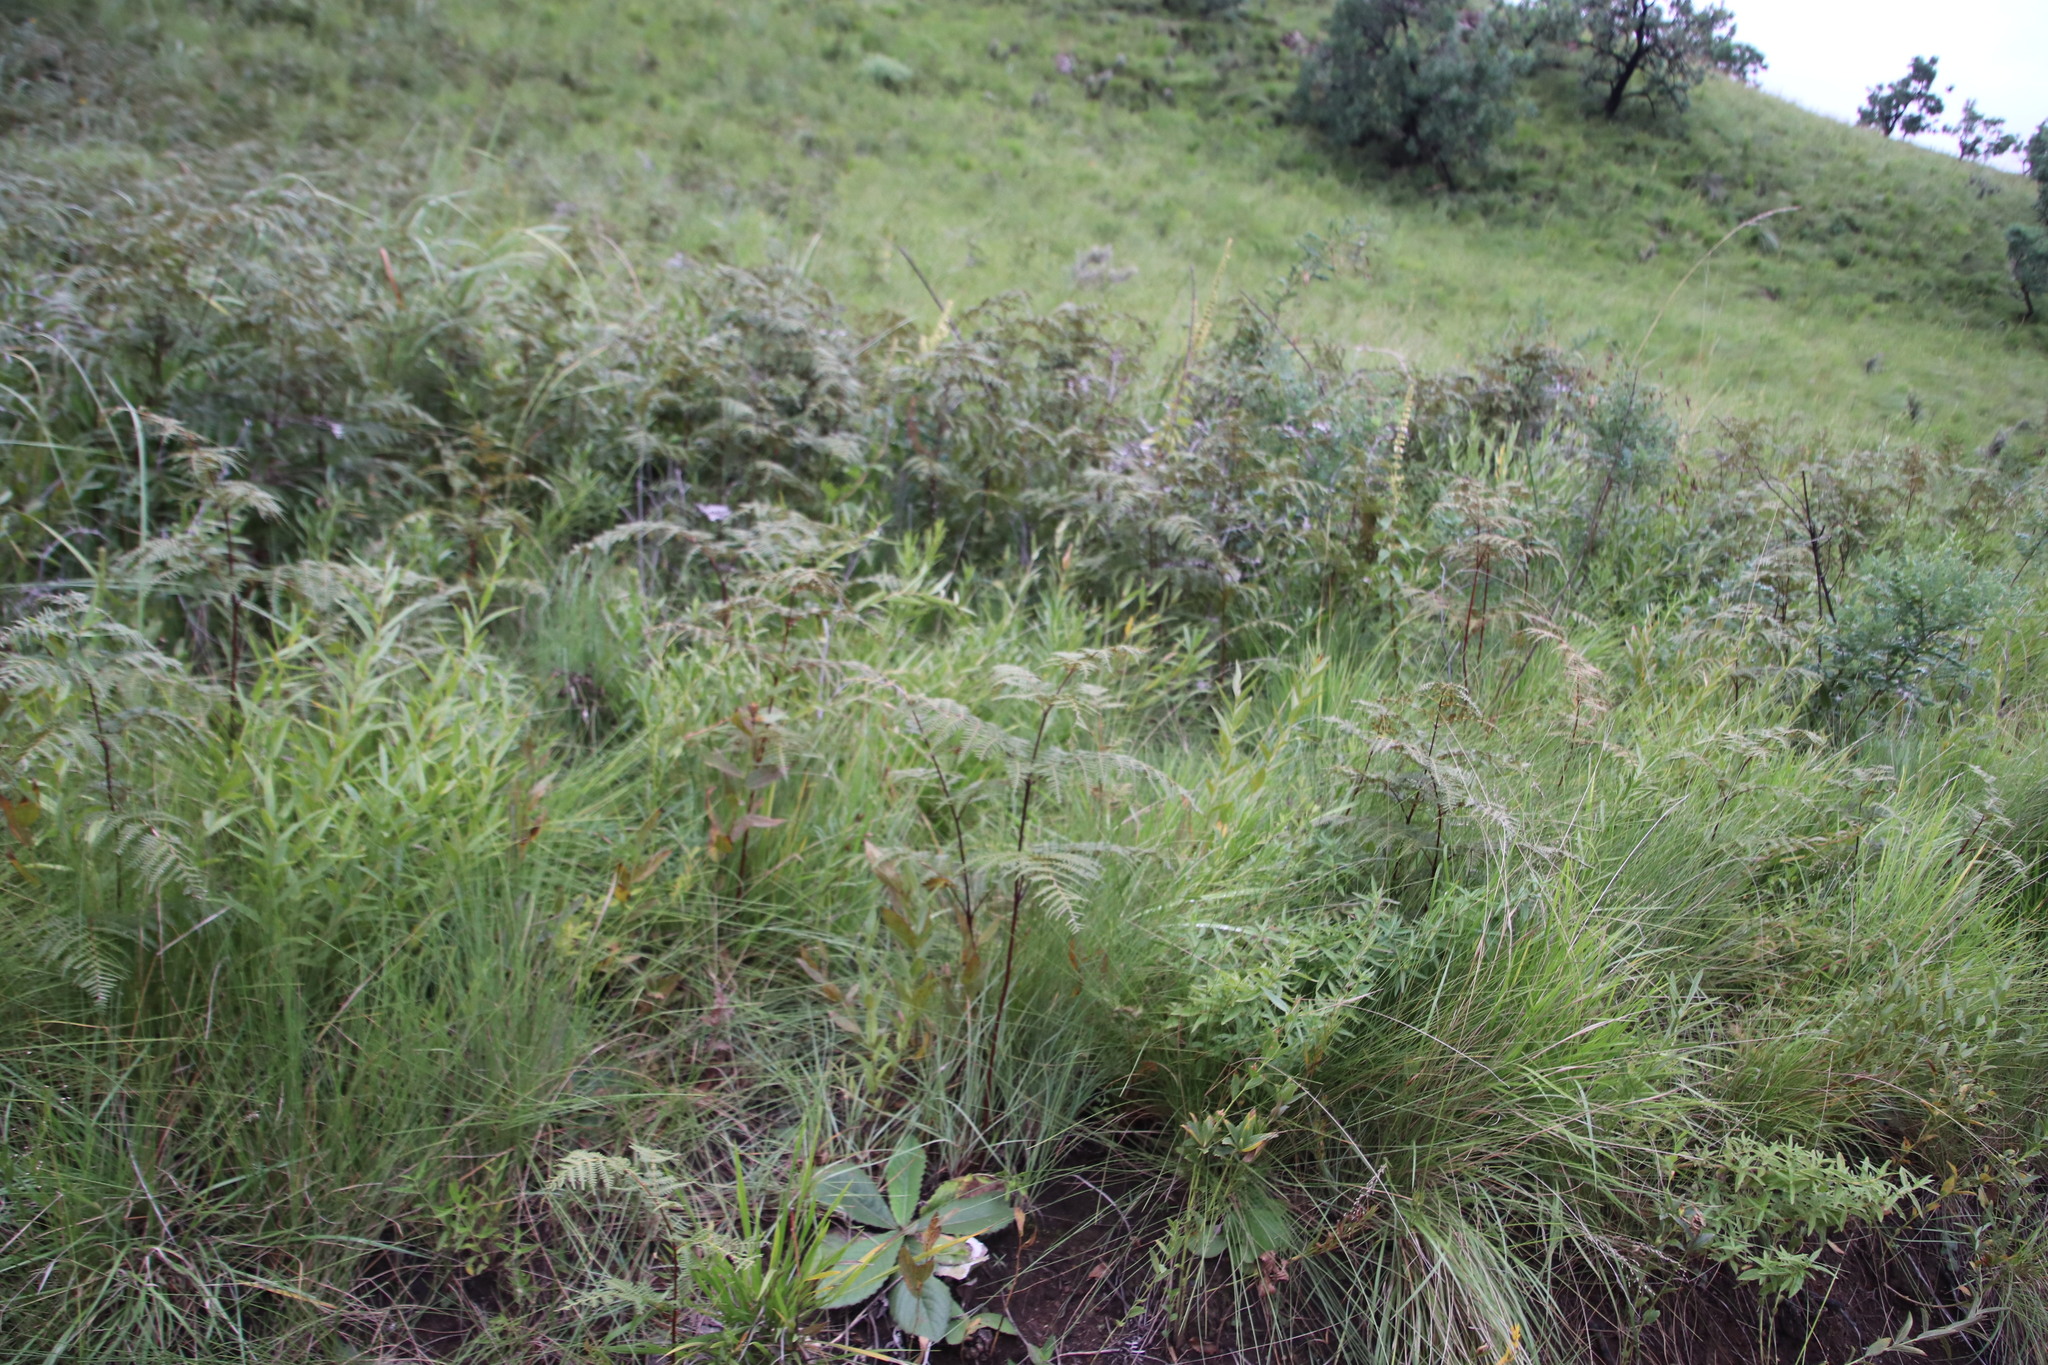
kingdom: Plantae
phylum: Tracheophyta
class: Polypodiopsida
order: Polypodiales
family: Dennstaedtiaceae
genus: Pteridium
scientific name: Pteridium aquilinum
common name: Bracken
